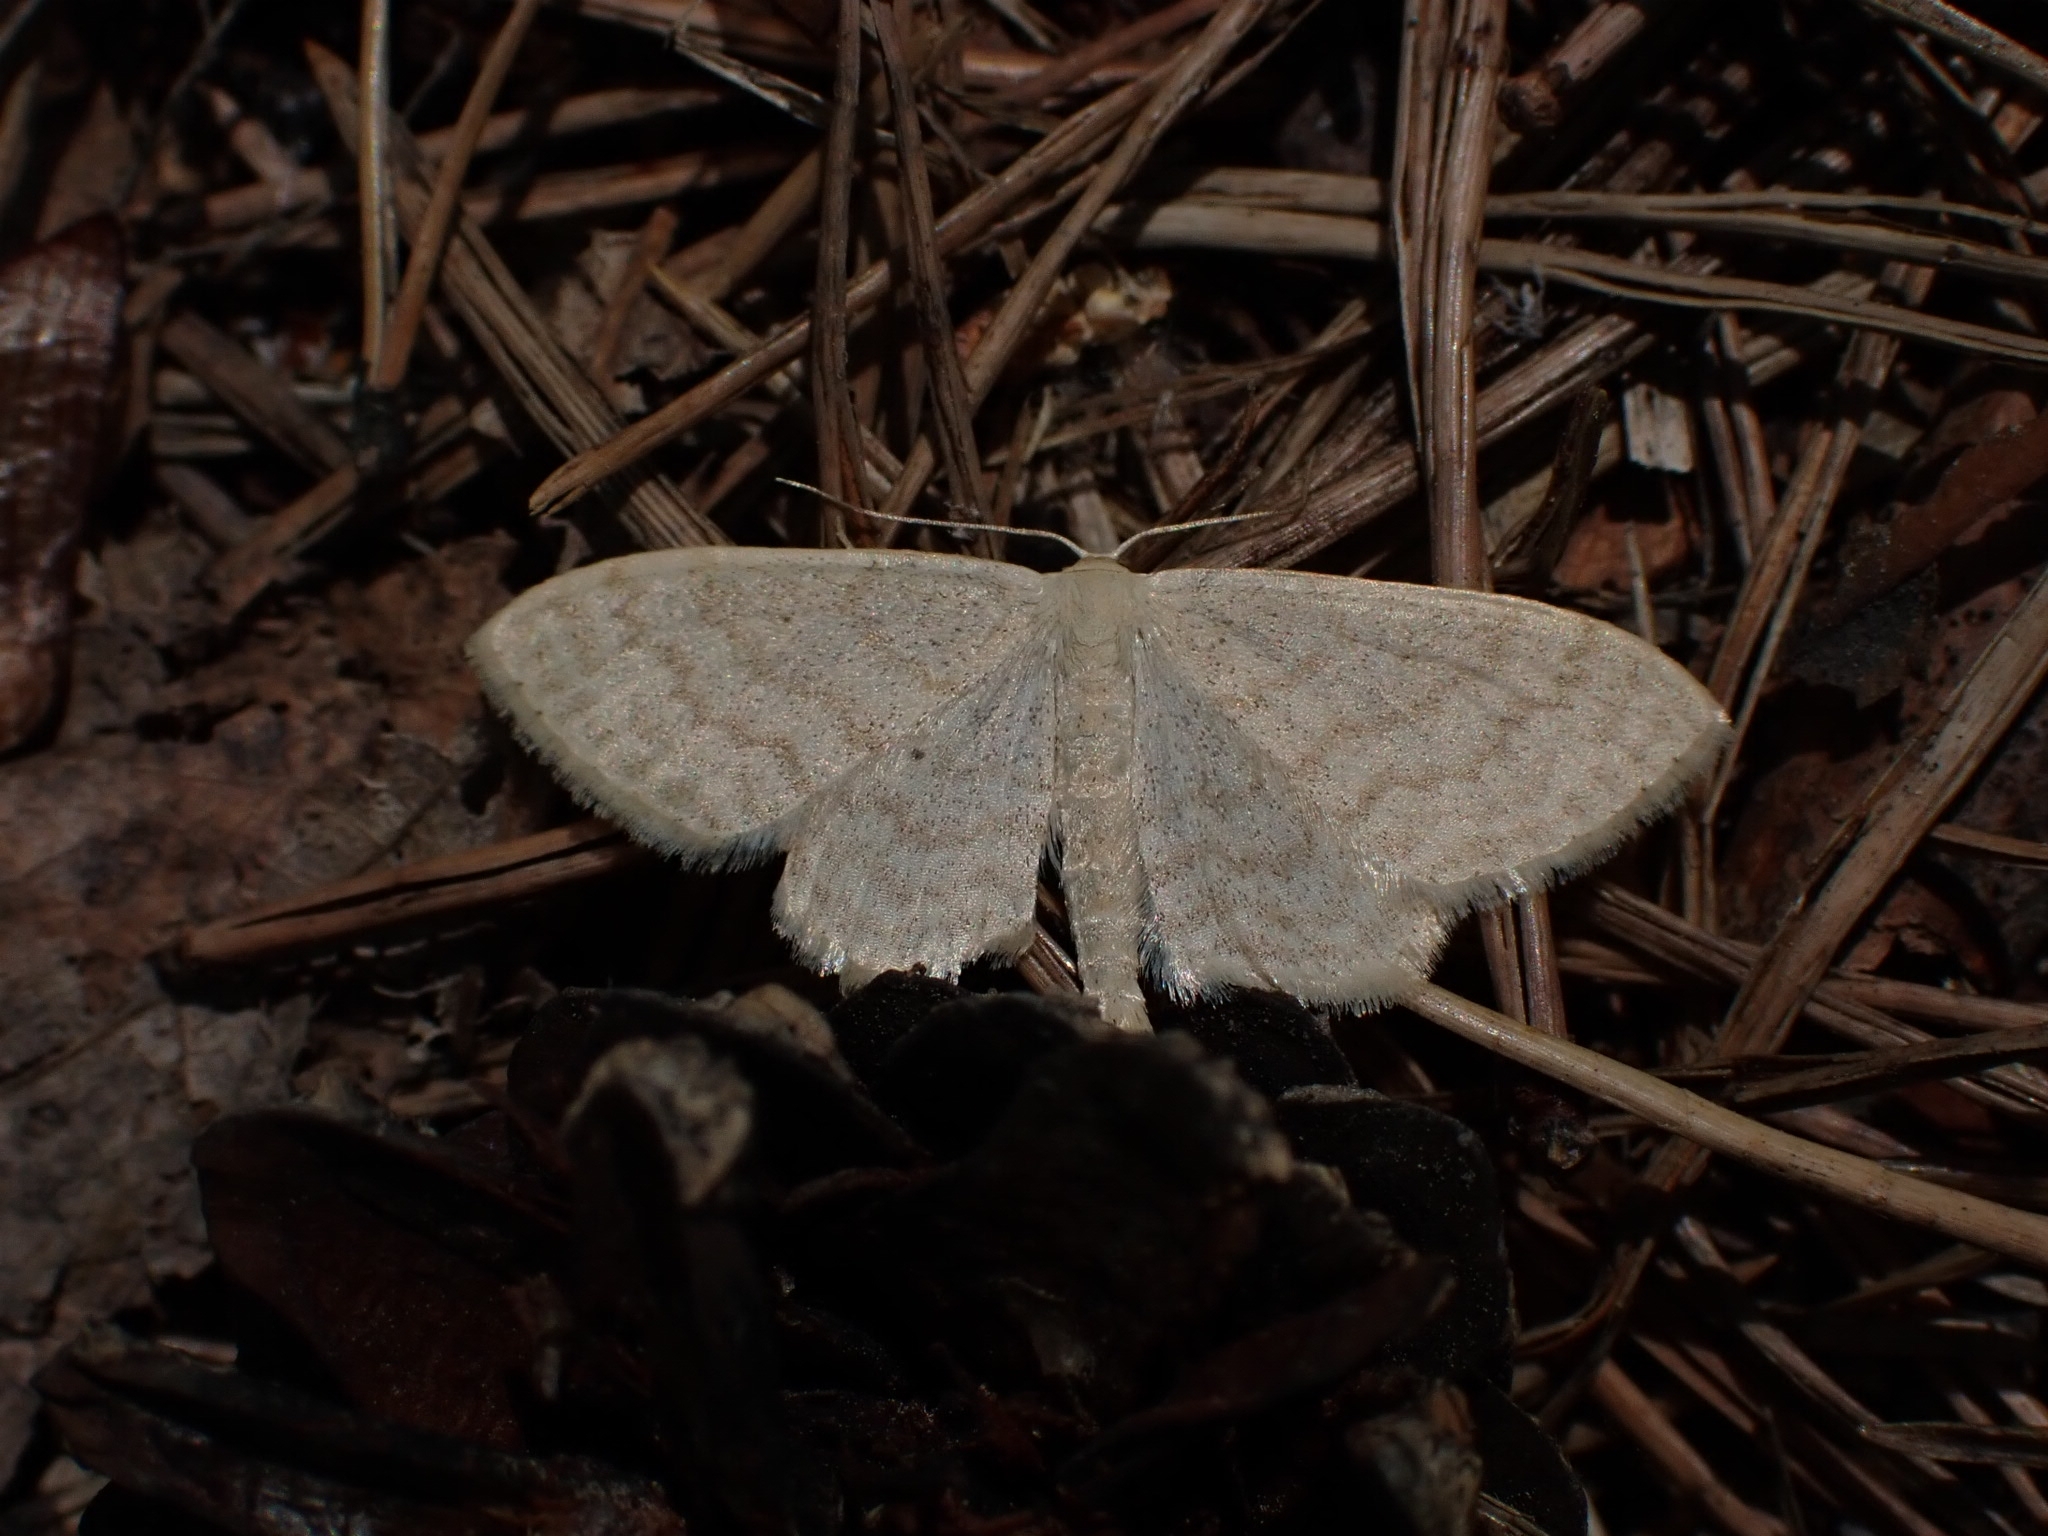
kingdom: Animalia
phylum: Arthropoda
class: Insecta
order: Lepidoptera
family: Geometridae
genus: Scopula
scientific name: Scopula floslactata
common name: Cream wave
